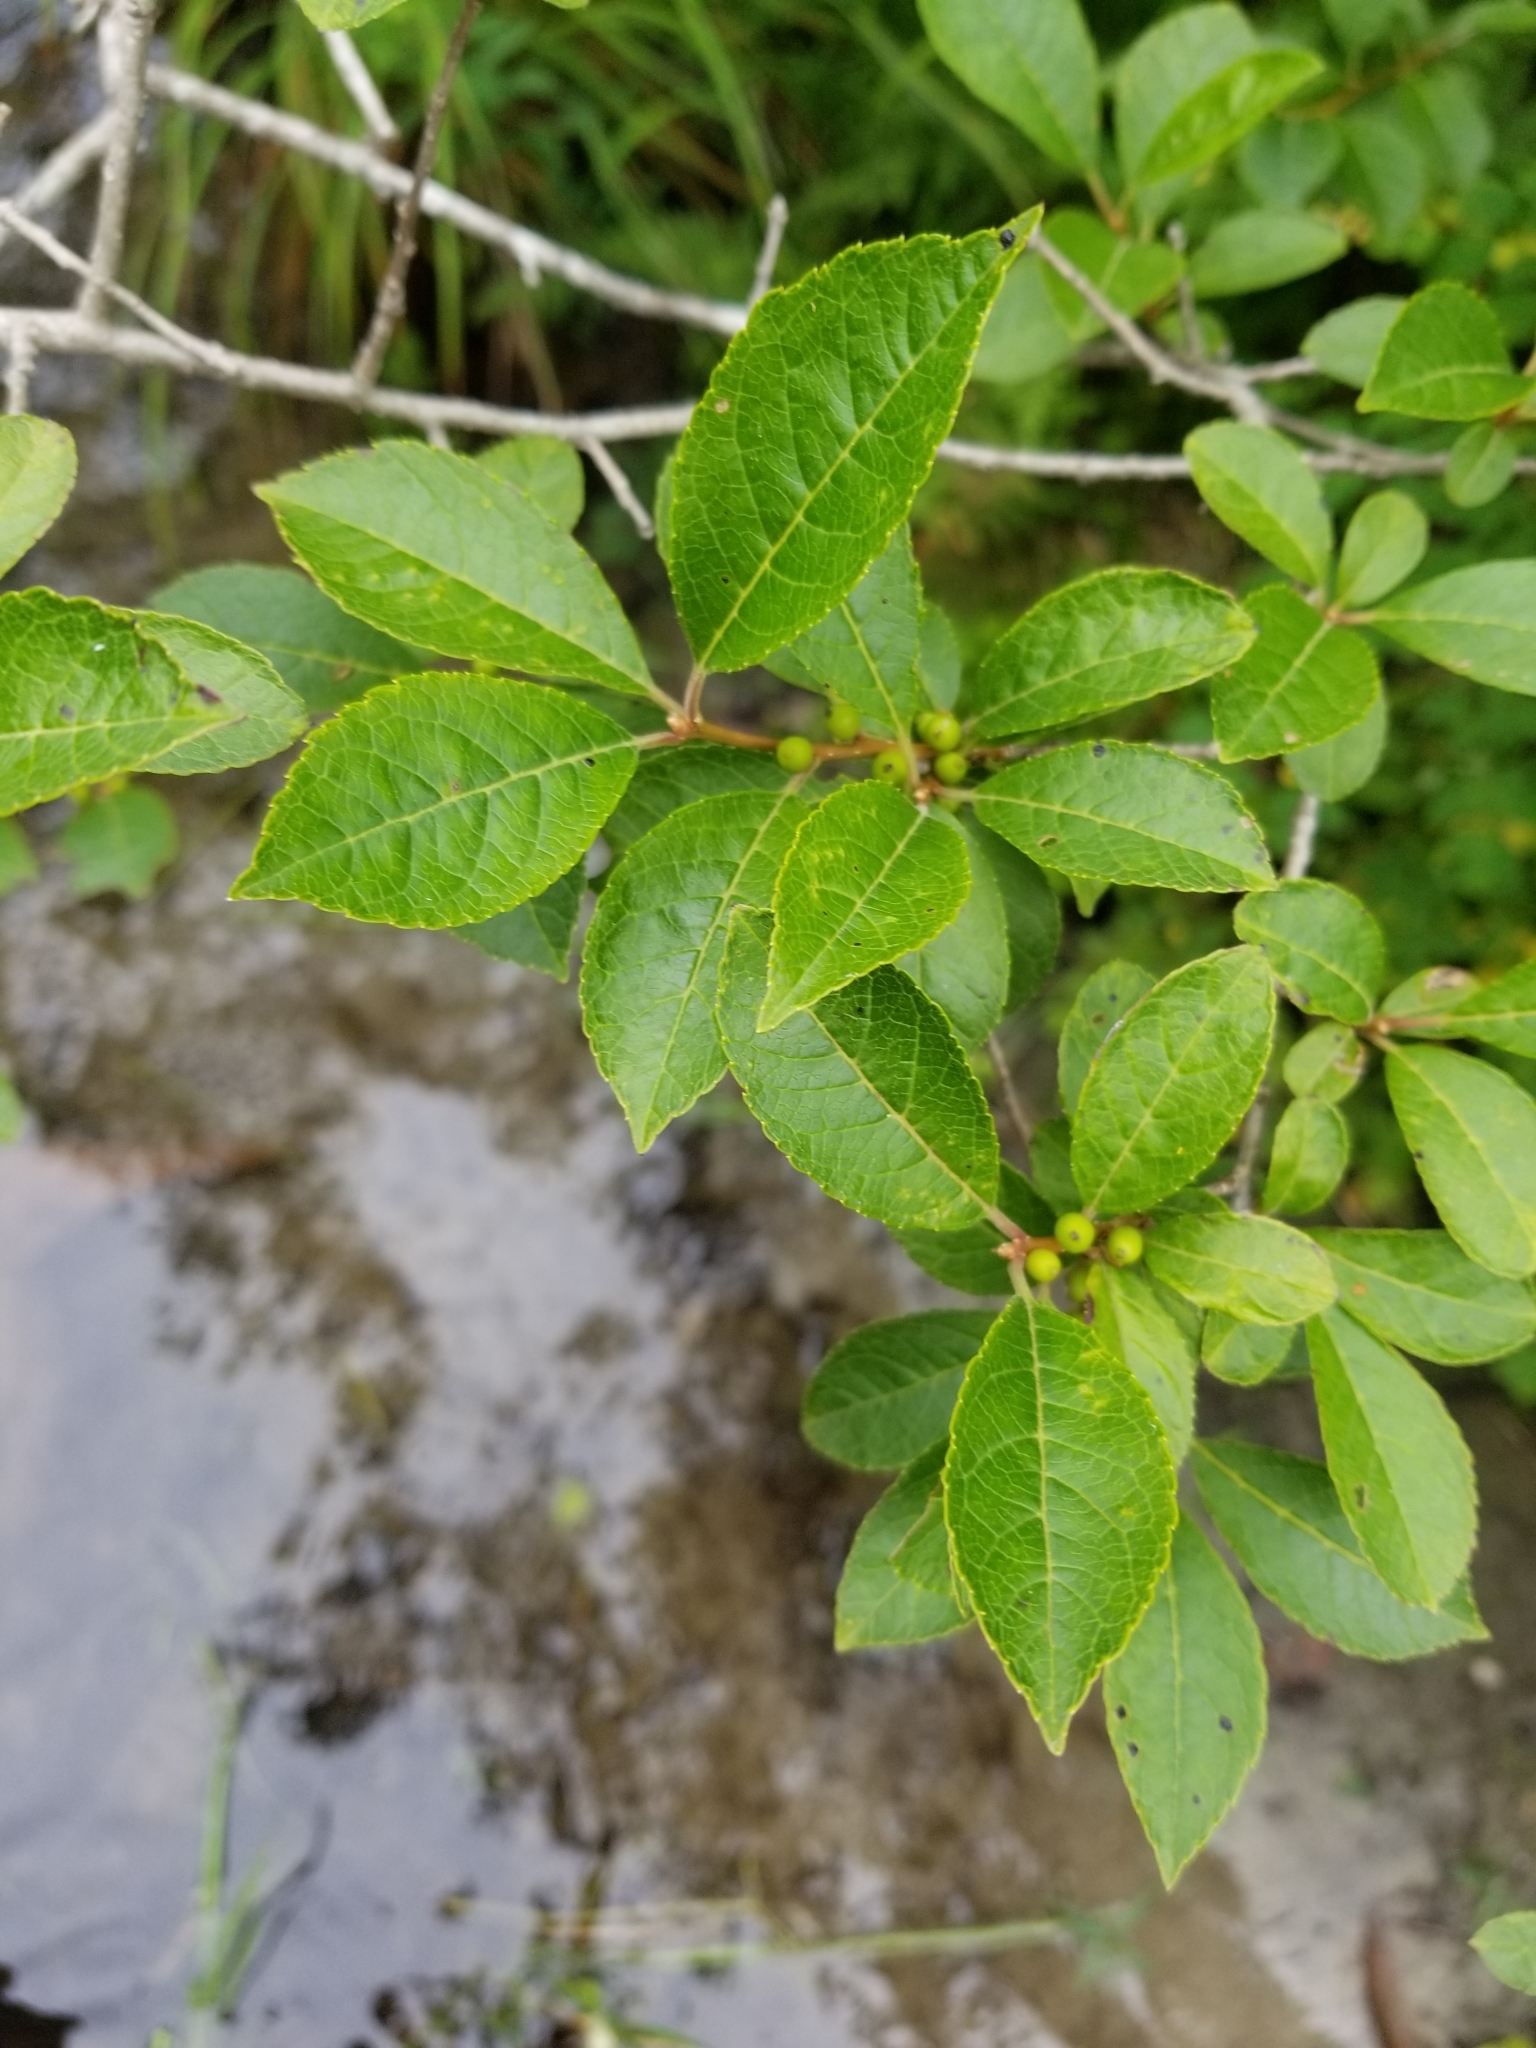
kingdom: Plantae
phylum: Tracheophyta
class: Magnoliopsida
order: Aquifoliales
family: Aquifoliaceae
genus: Ilex
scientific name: Ilex verticillata
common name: Virginia winterberry
